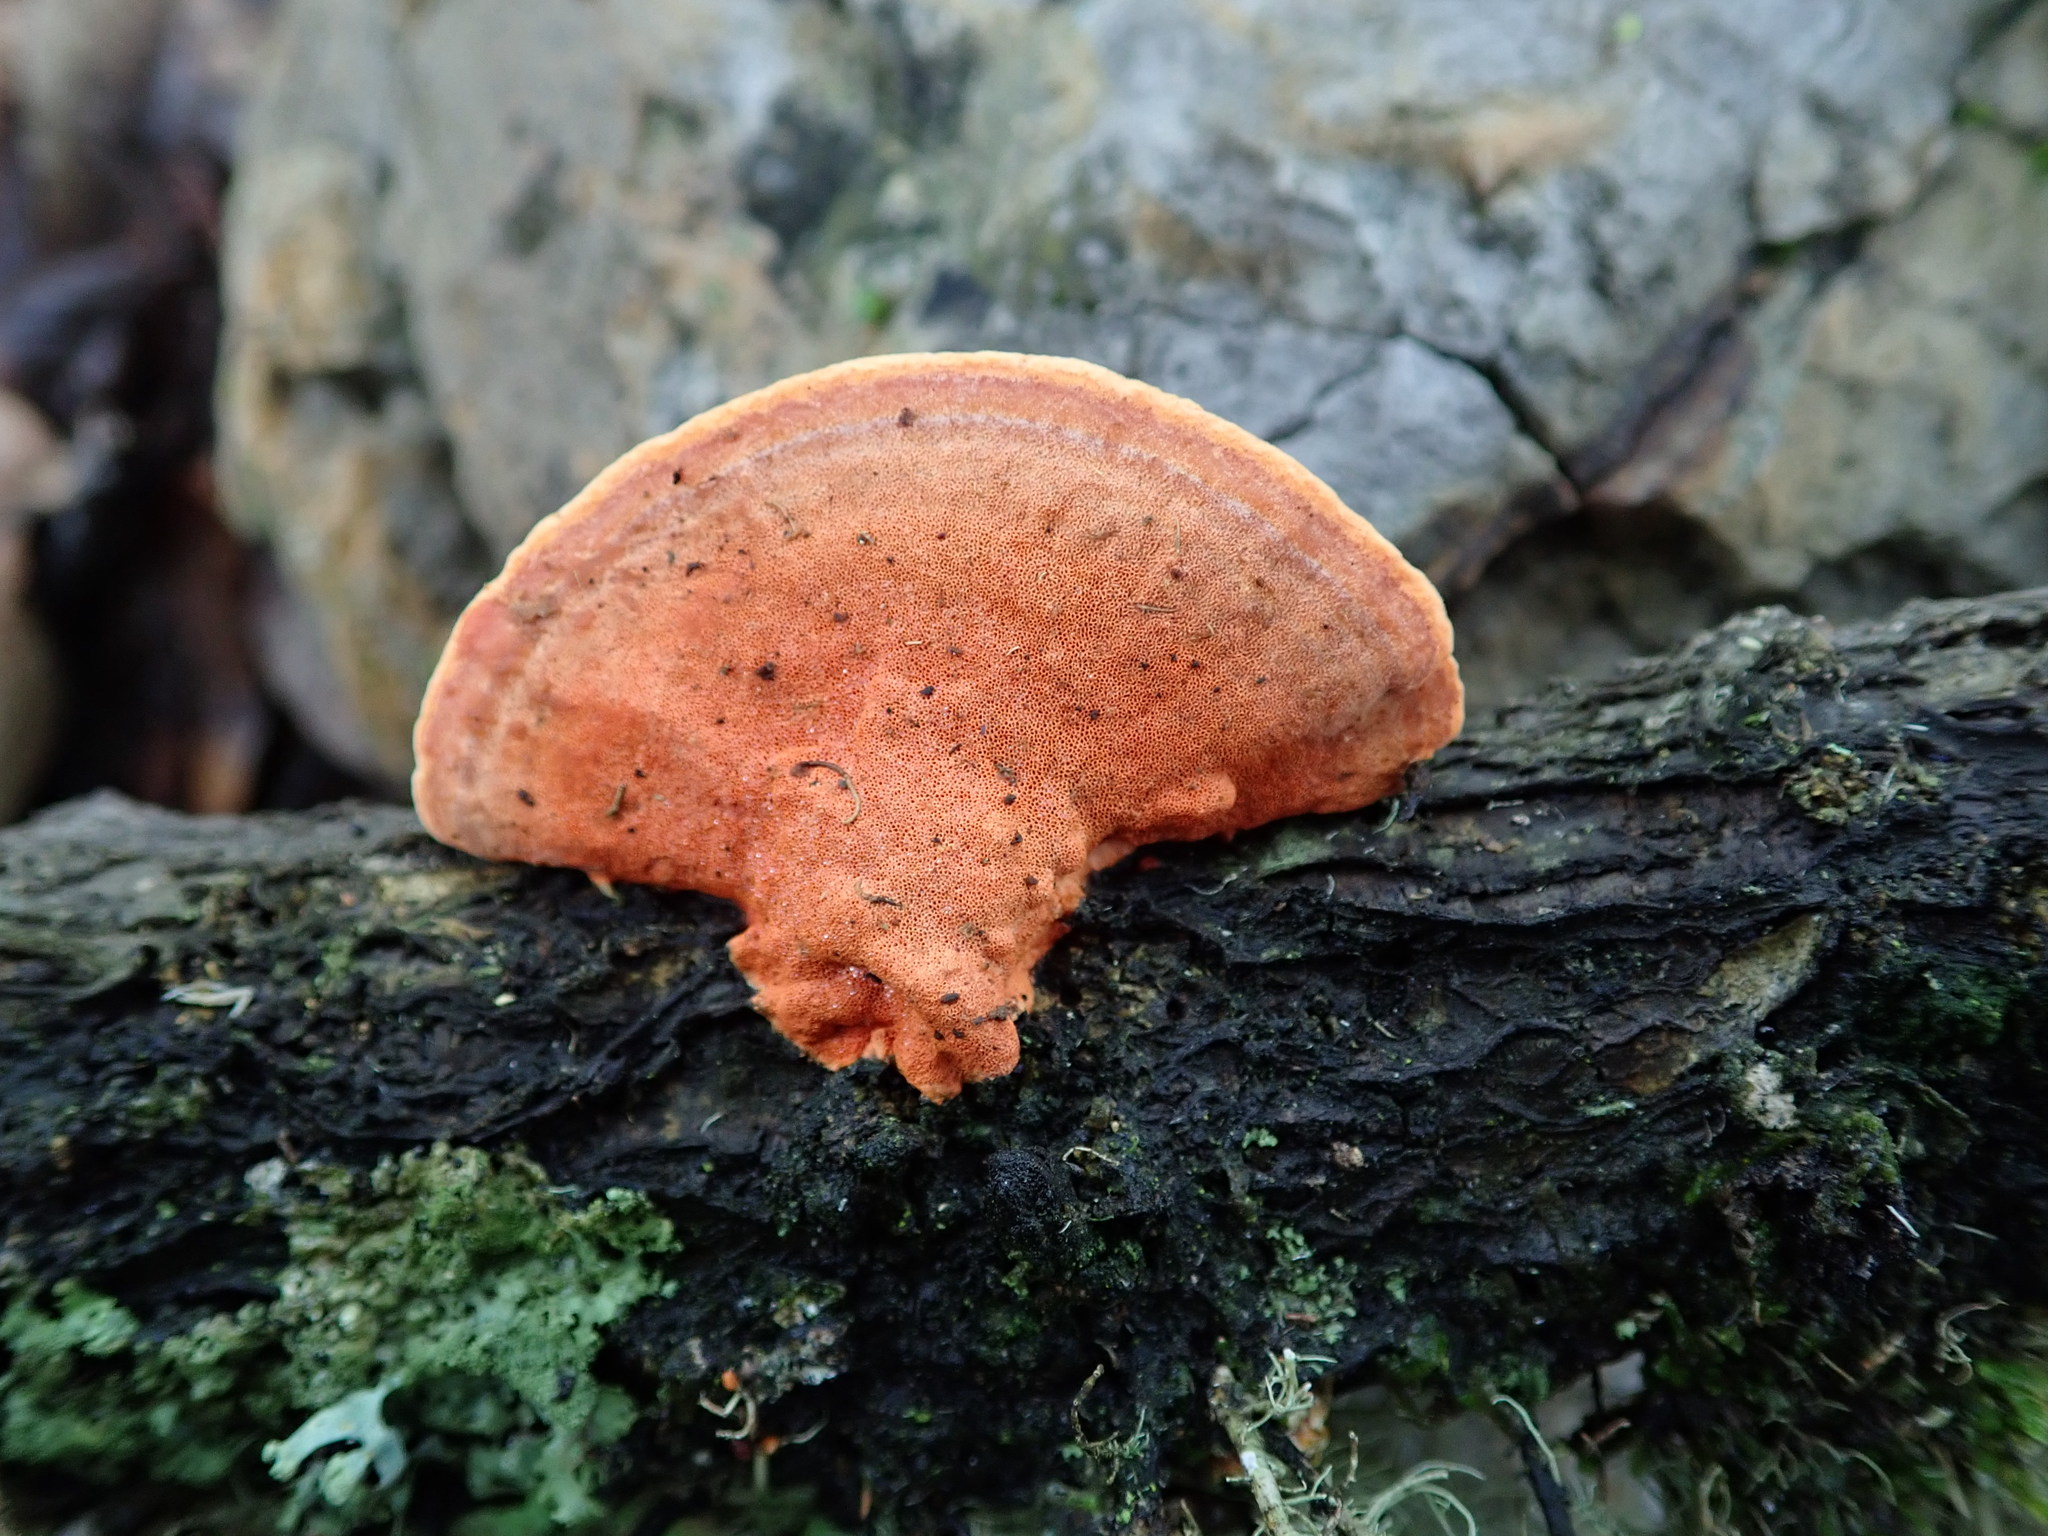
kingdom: Fungi
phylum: Basidiomycota
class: Agaricomycetes
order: Polyporales
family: Polyporaceae
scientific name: Polyporaceae
